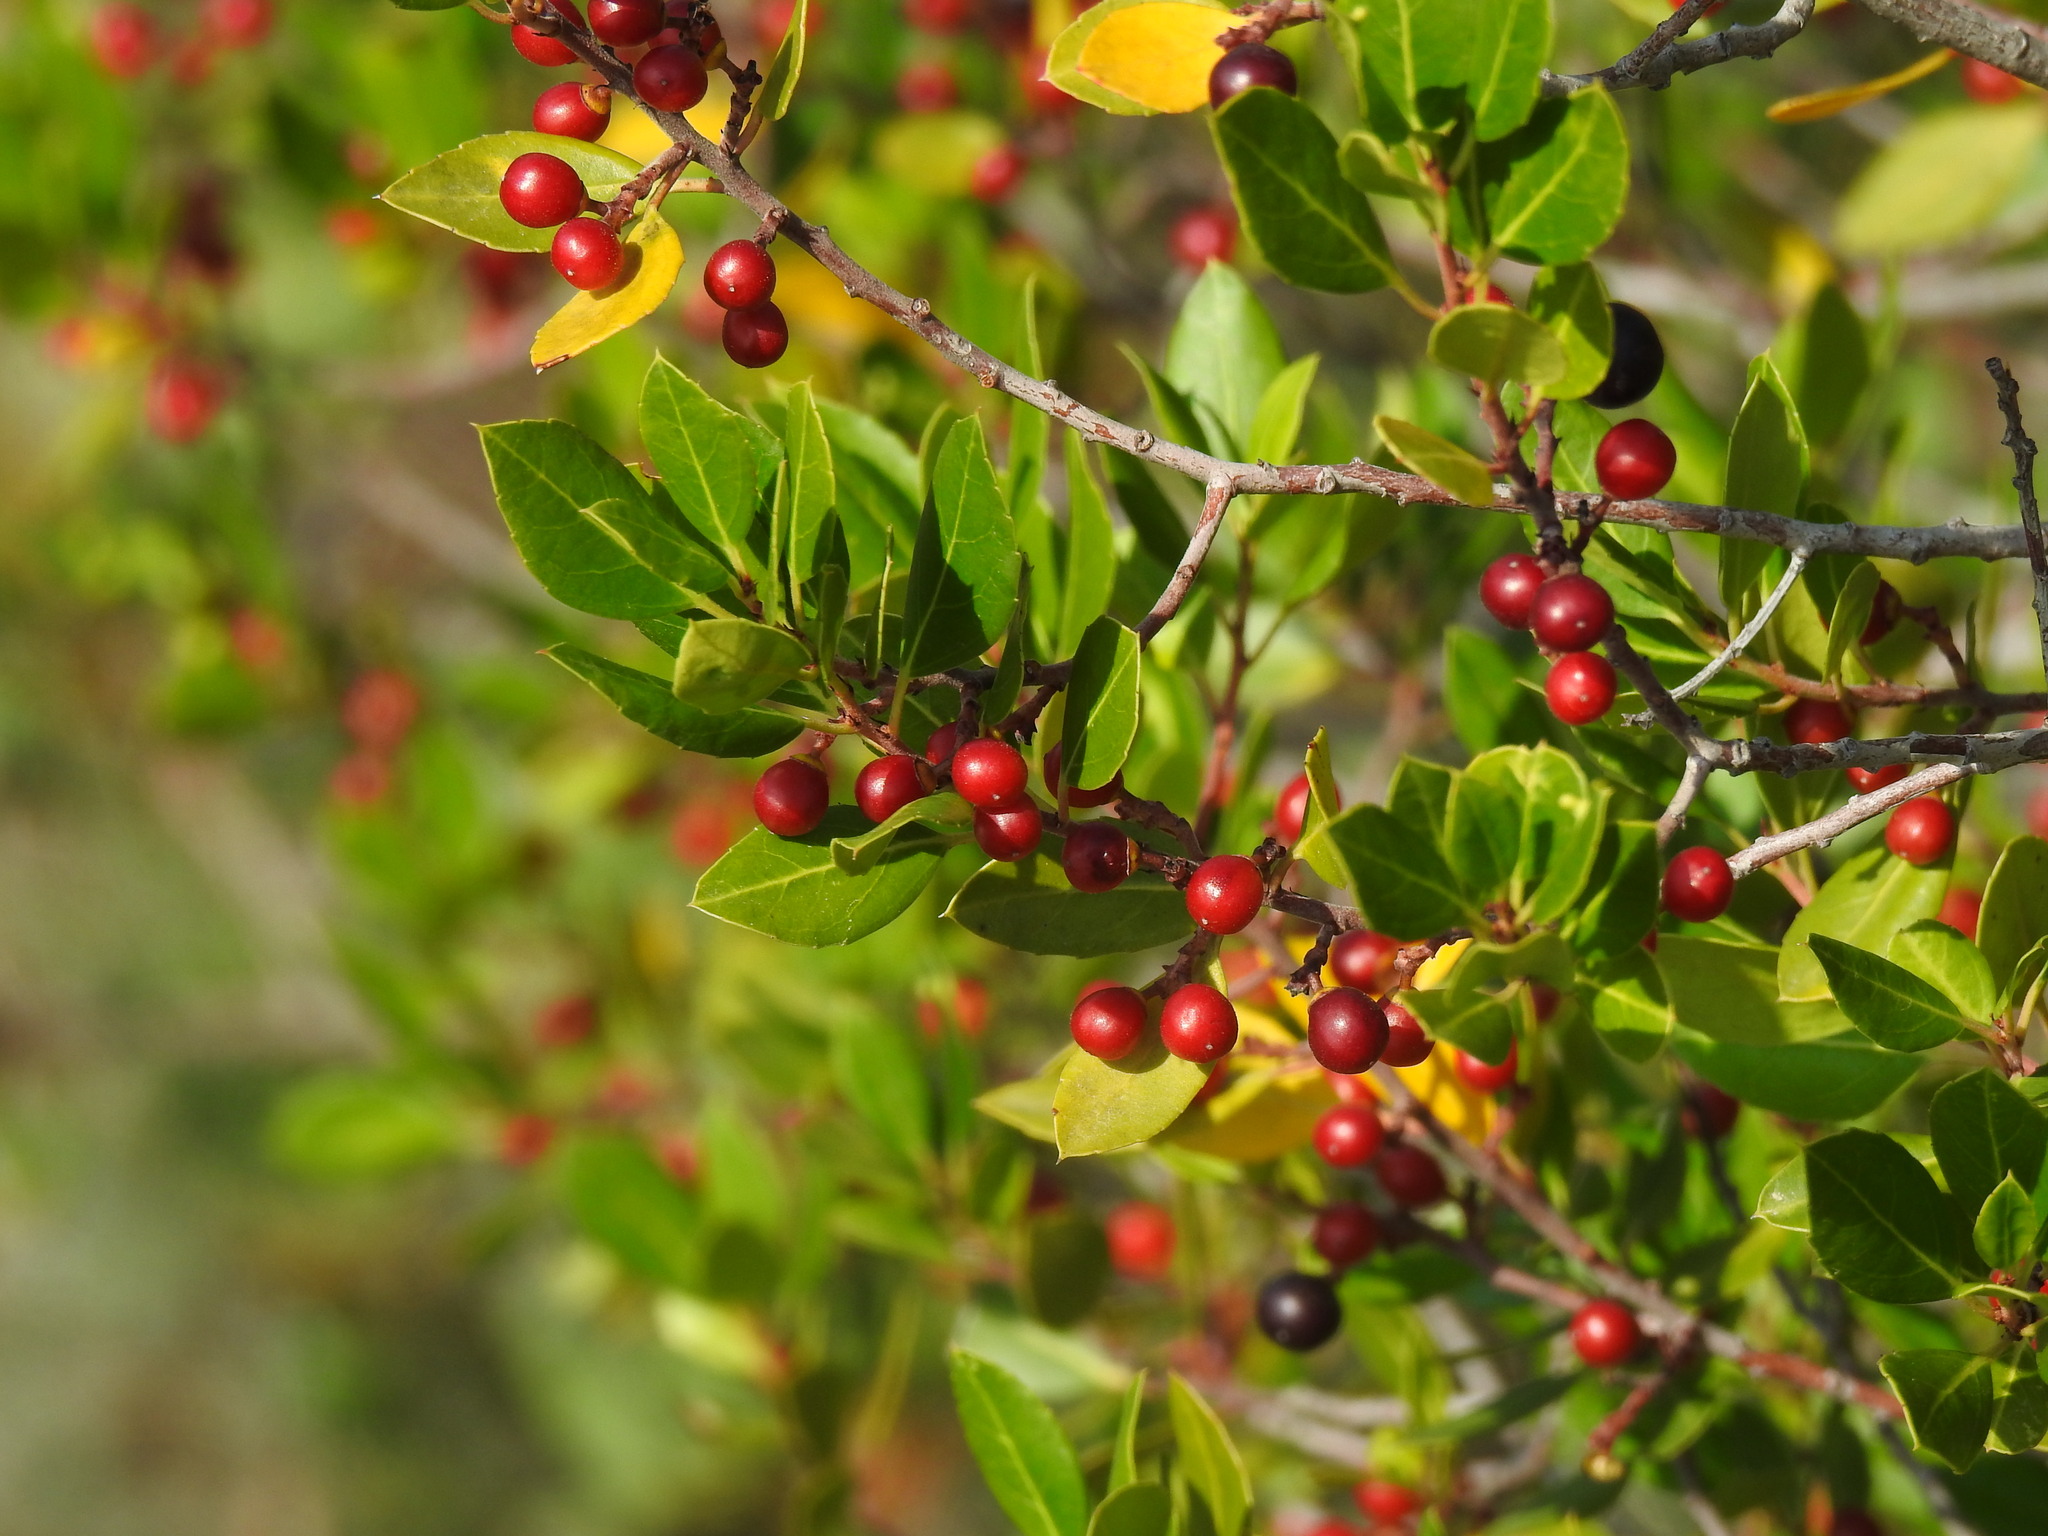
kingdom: Plantae
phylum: Tracheophyta
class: Magnoliopsida
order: Rosales
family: Rhamnaceae
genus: Rhamnus
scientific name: Rhamnus alaternus
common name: Mediterranean buckthorn
